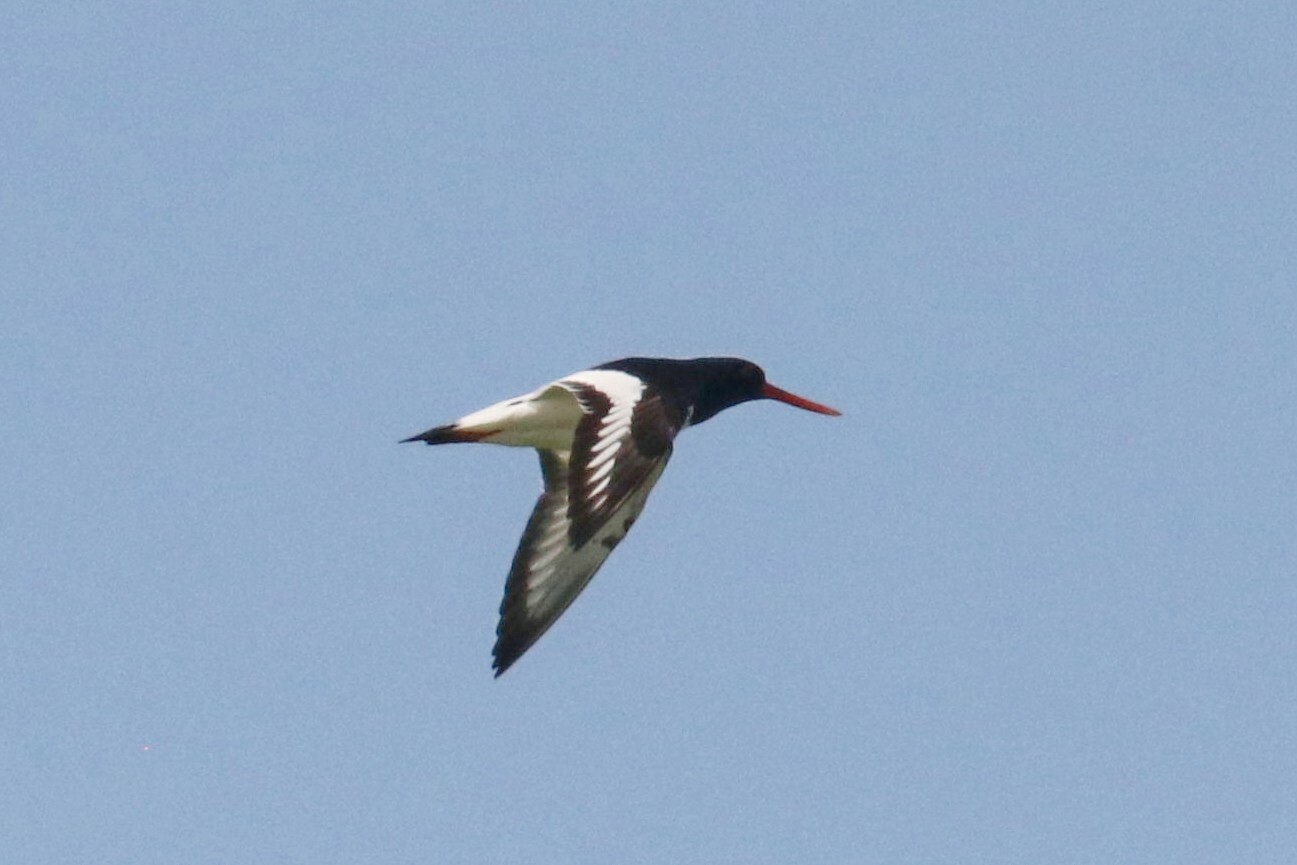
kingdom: Animalia
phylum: Chordata
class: Aves
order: Charadriiformes
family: Haematopodidae
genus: Haematopus
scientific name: Haematopus ostralegus
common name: Eurasian oystercatcher
